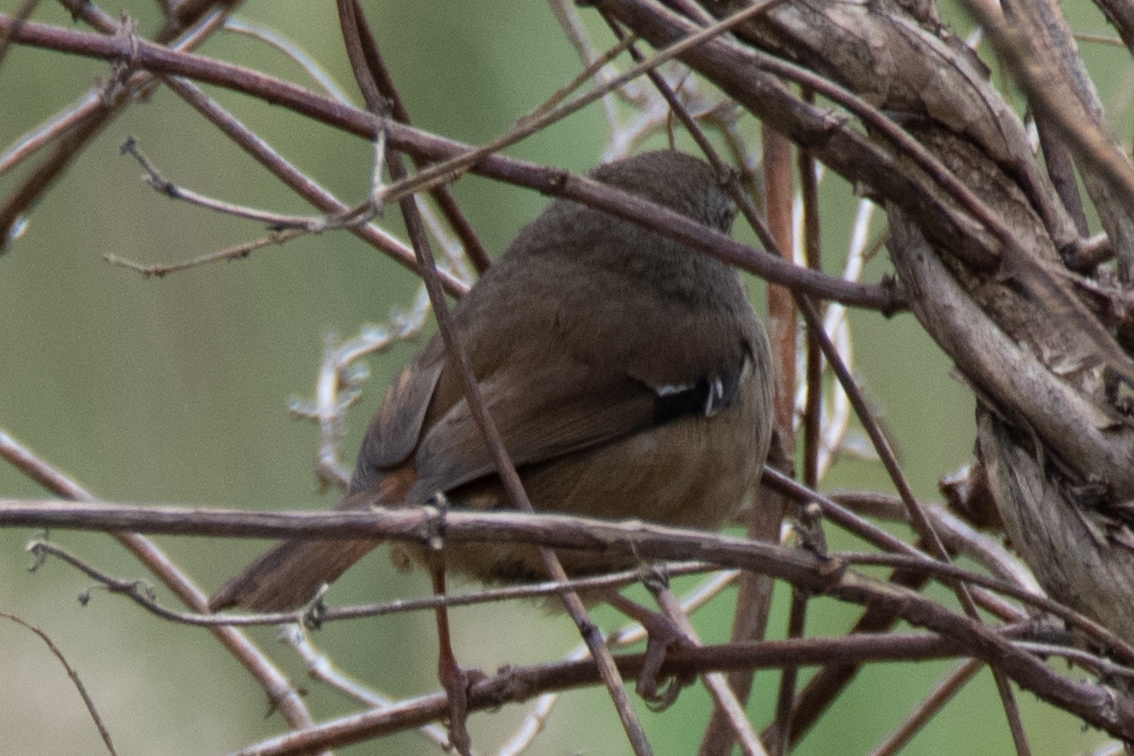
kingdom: Animalia
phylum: Chordata
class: Aves
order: Passeriformes
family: Acanthizidae
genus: Sericornis
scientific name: Sericornis frontalis
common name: White-browed scrubwren
